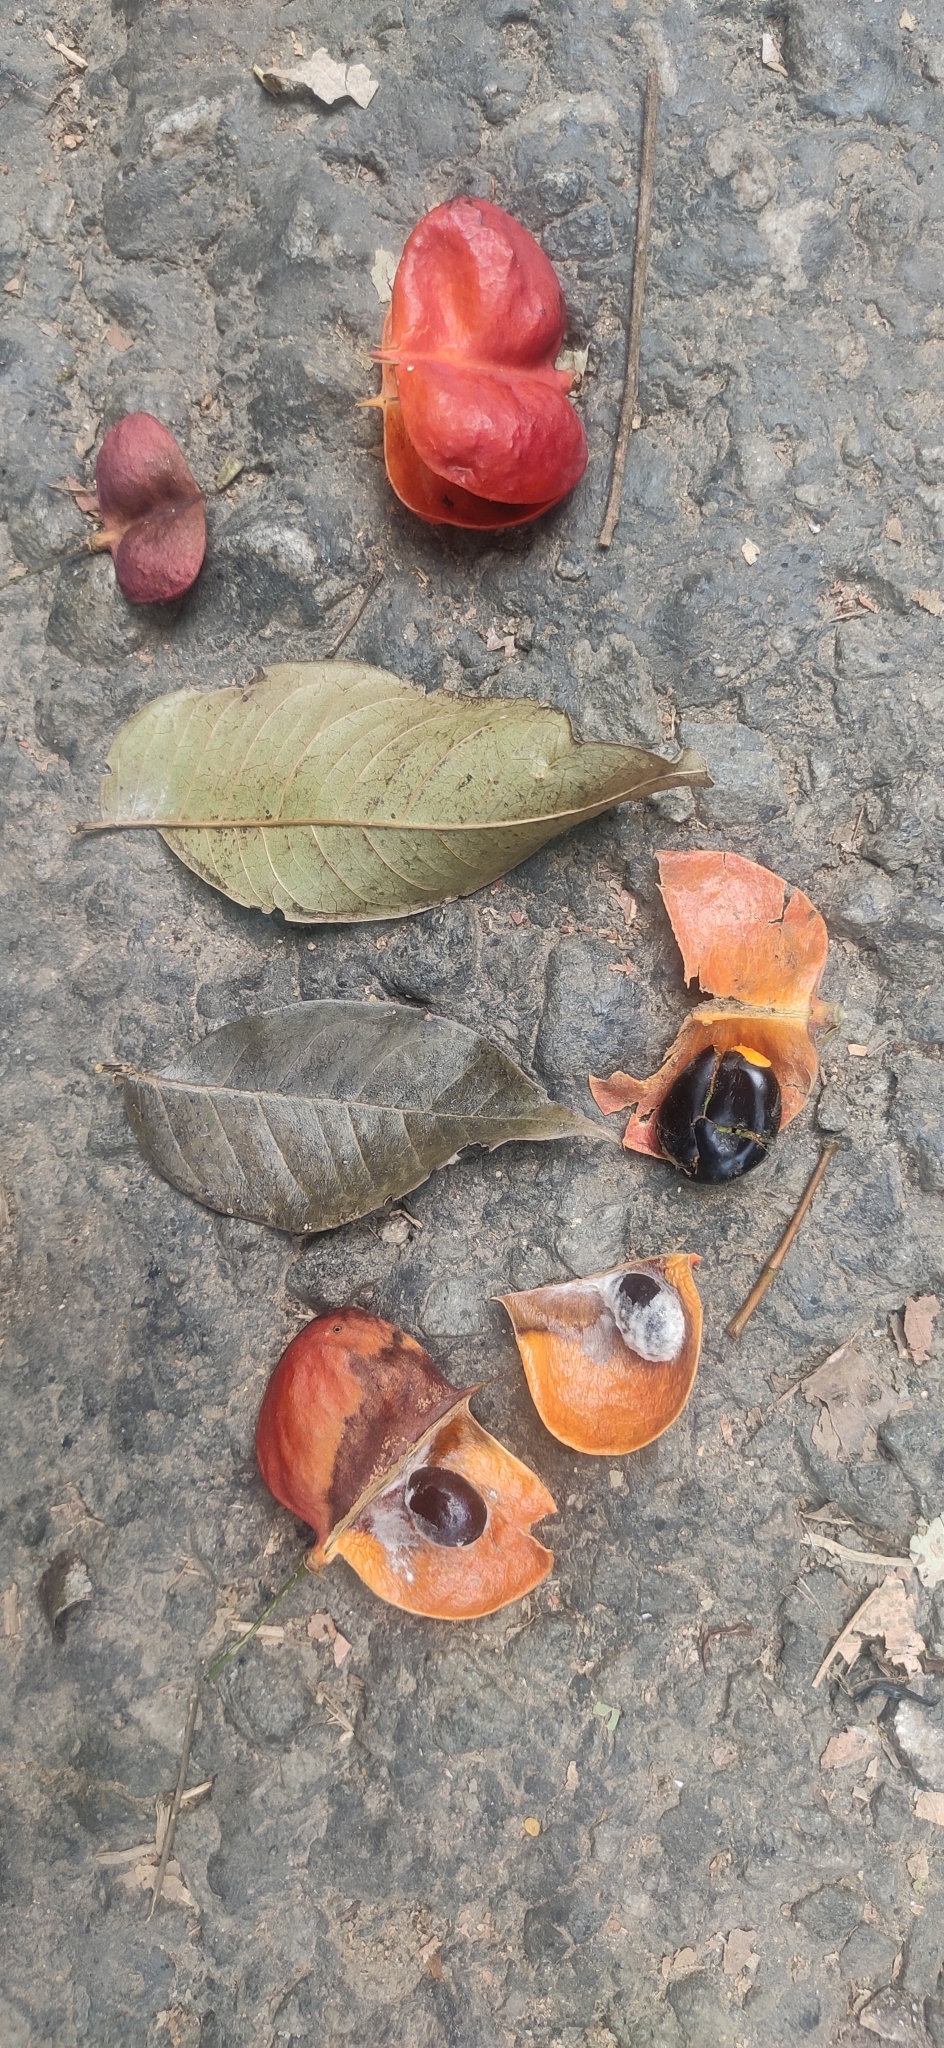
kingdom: Plantae
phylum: Tracheophyta
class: Magnoliopsida
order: Sapindales
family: Sapindaceae
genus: Harpullia
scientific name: Harpullia arborea
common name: Tulip-wood tree
